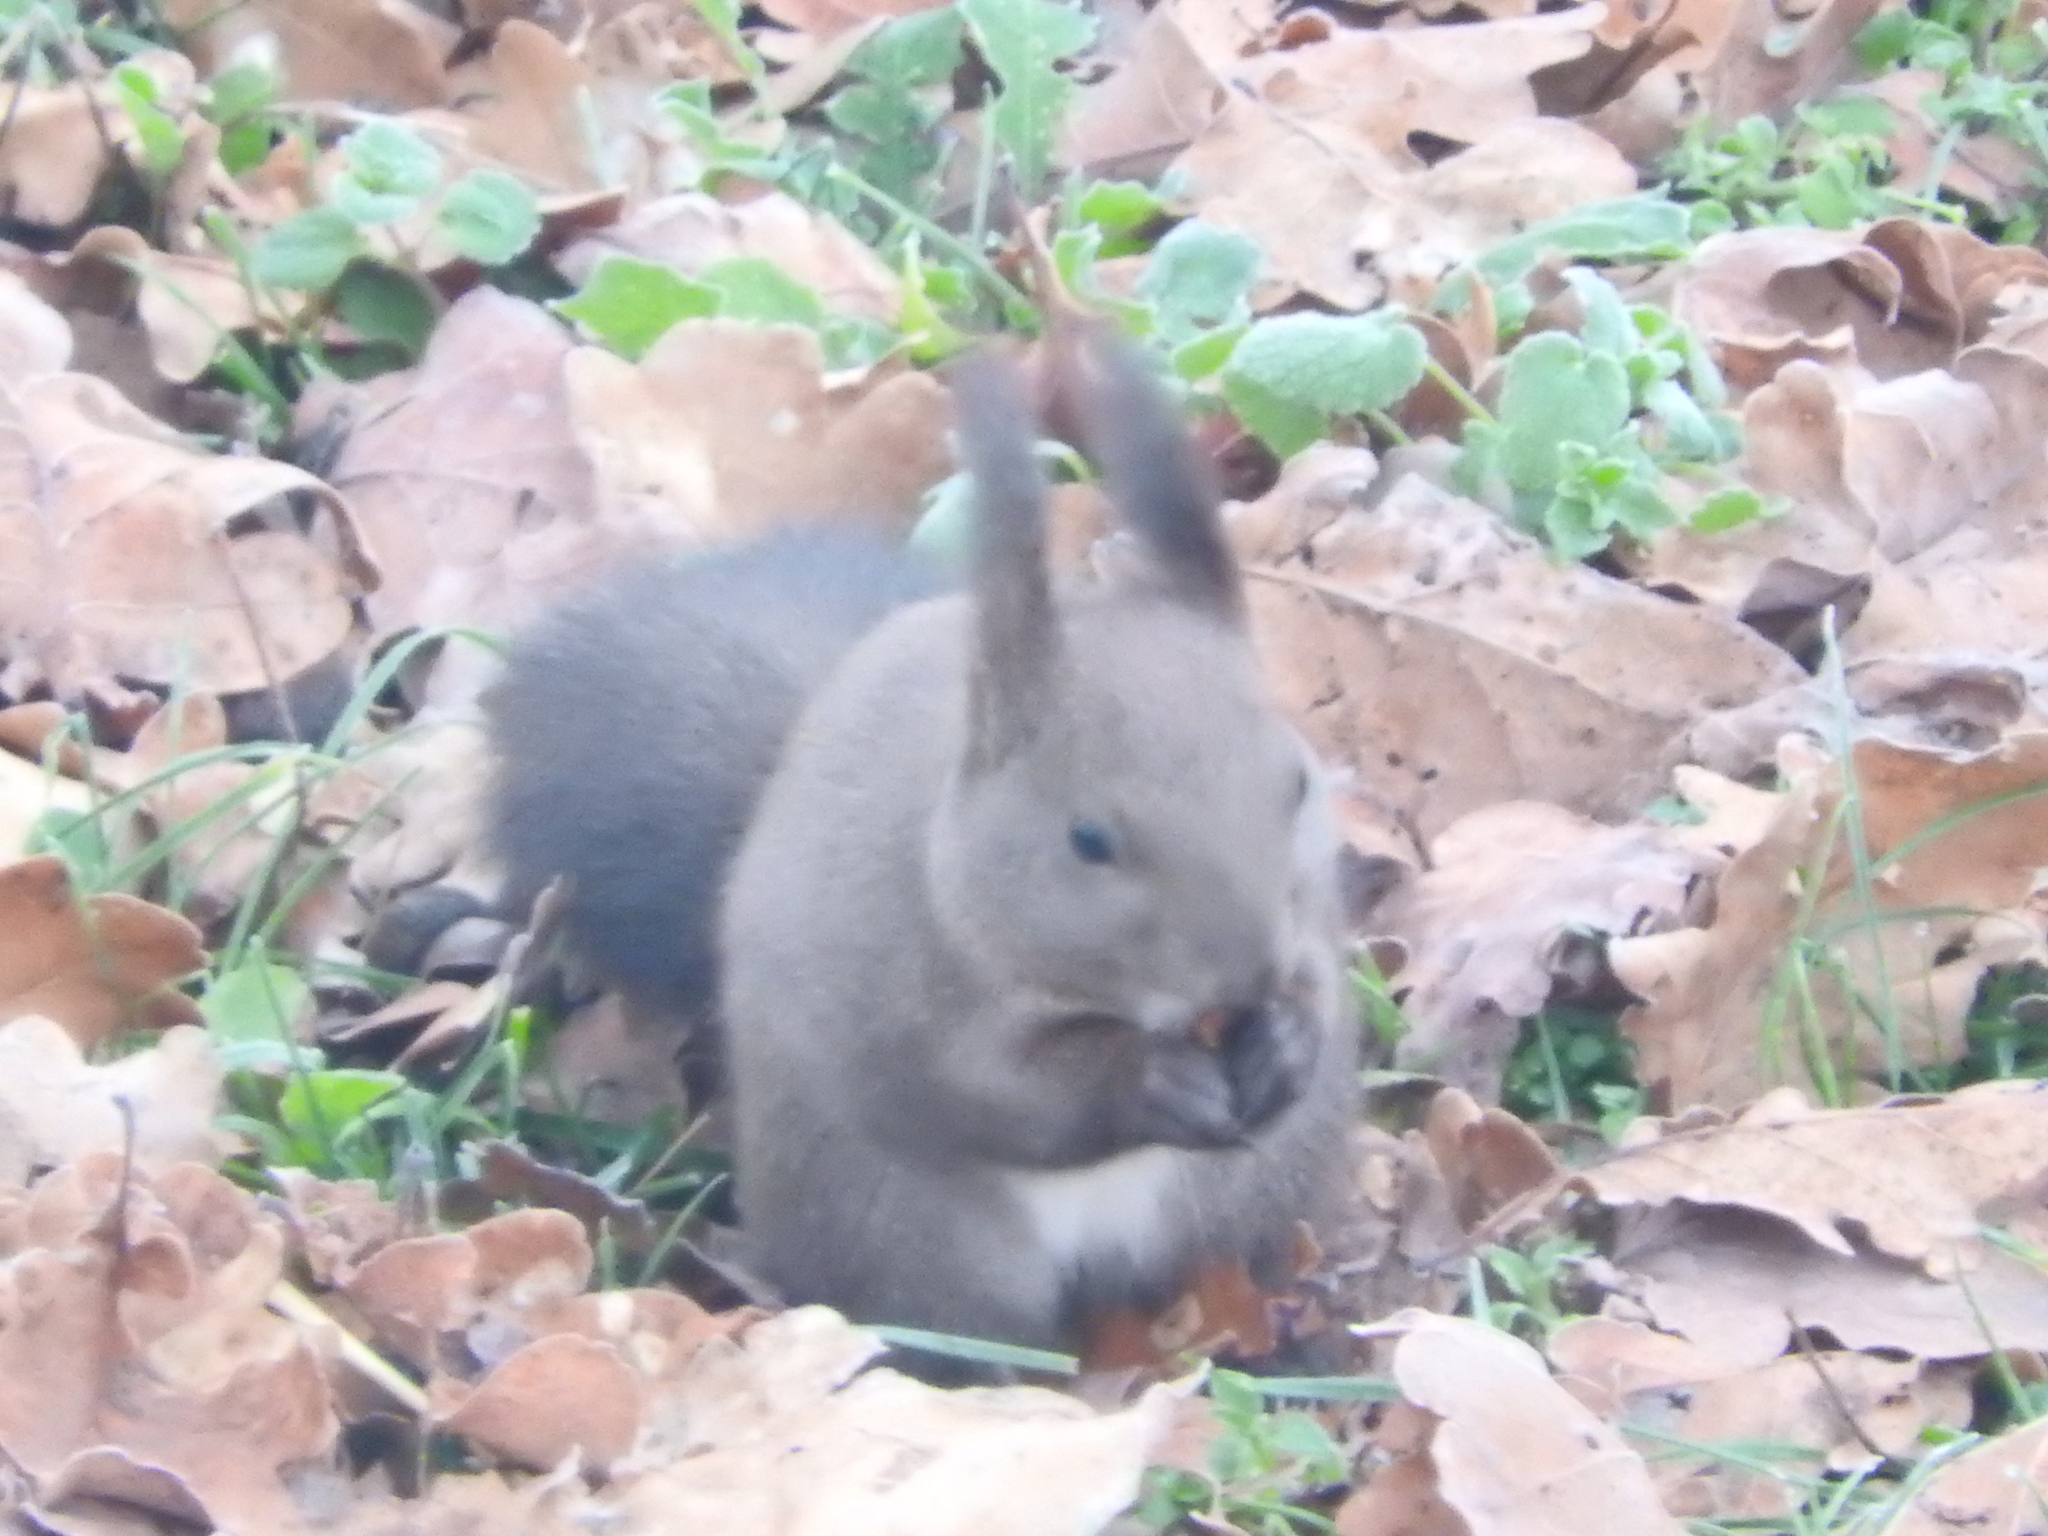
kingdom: Animalia
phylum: Chordata
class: Mammalia
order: Rodentia
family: Sciuridae
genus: Sciurus
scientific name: Sciurus vulgaris
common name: Eurasian red squirrel
